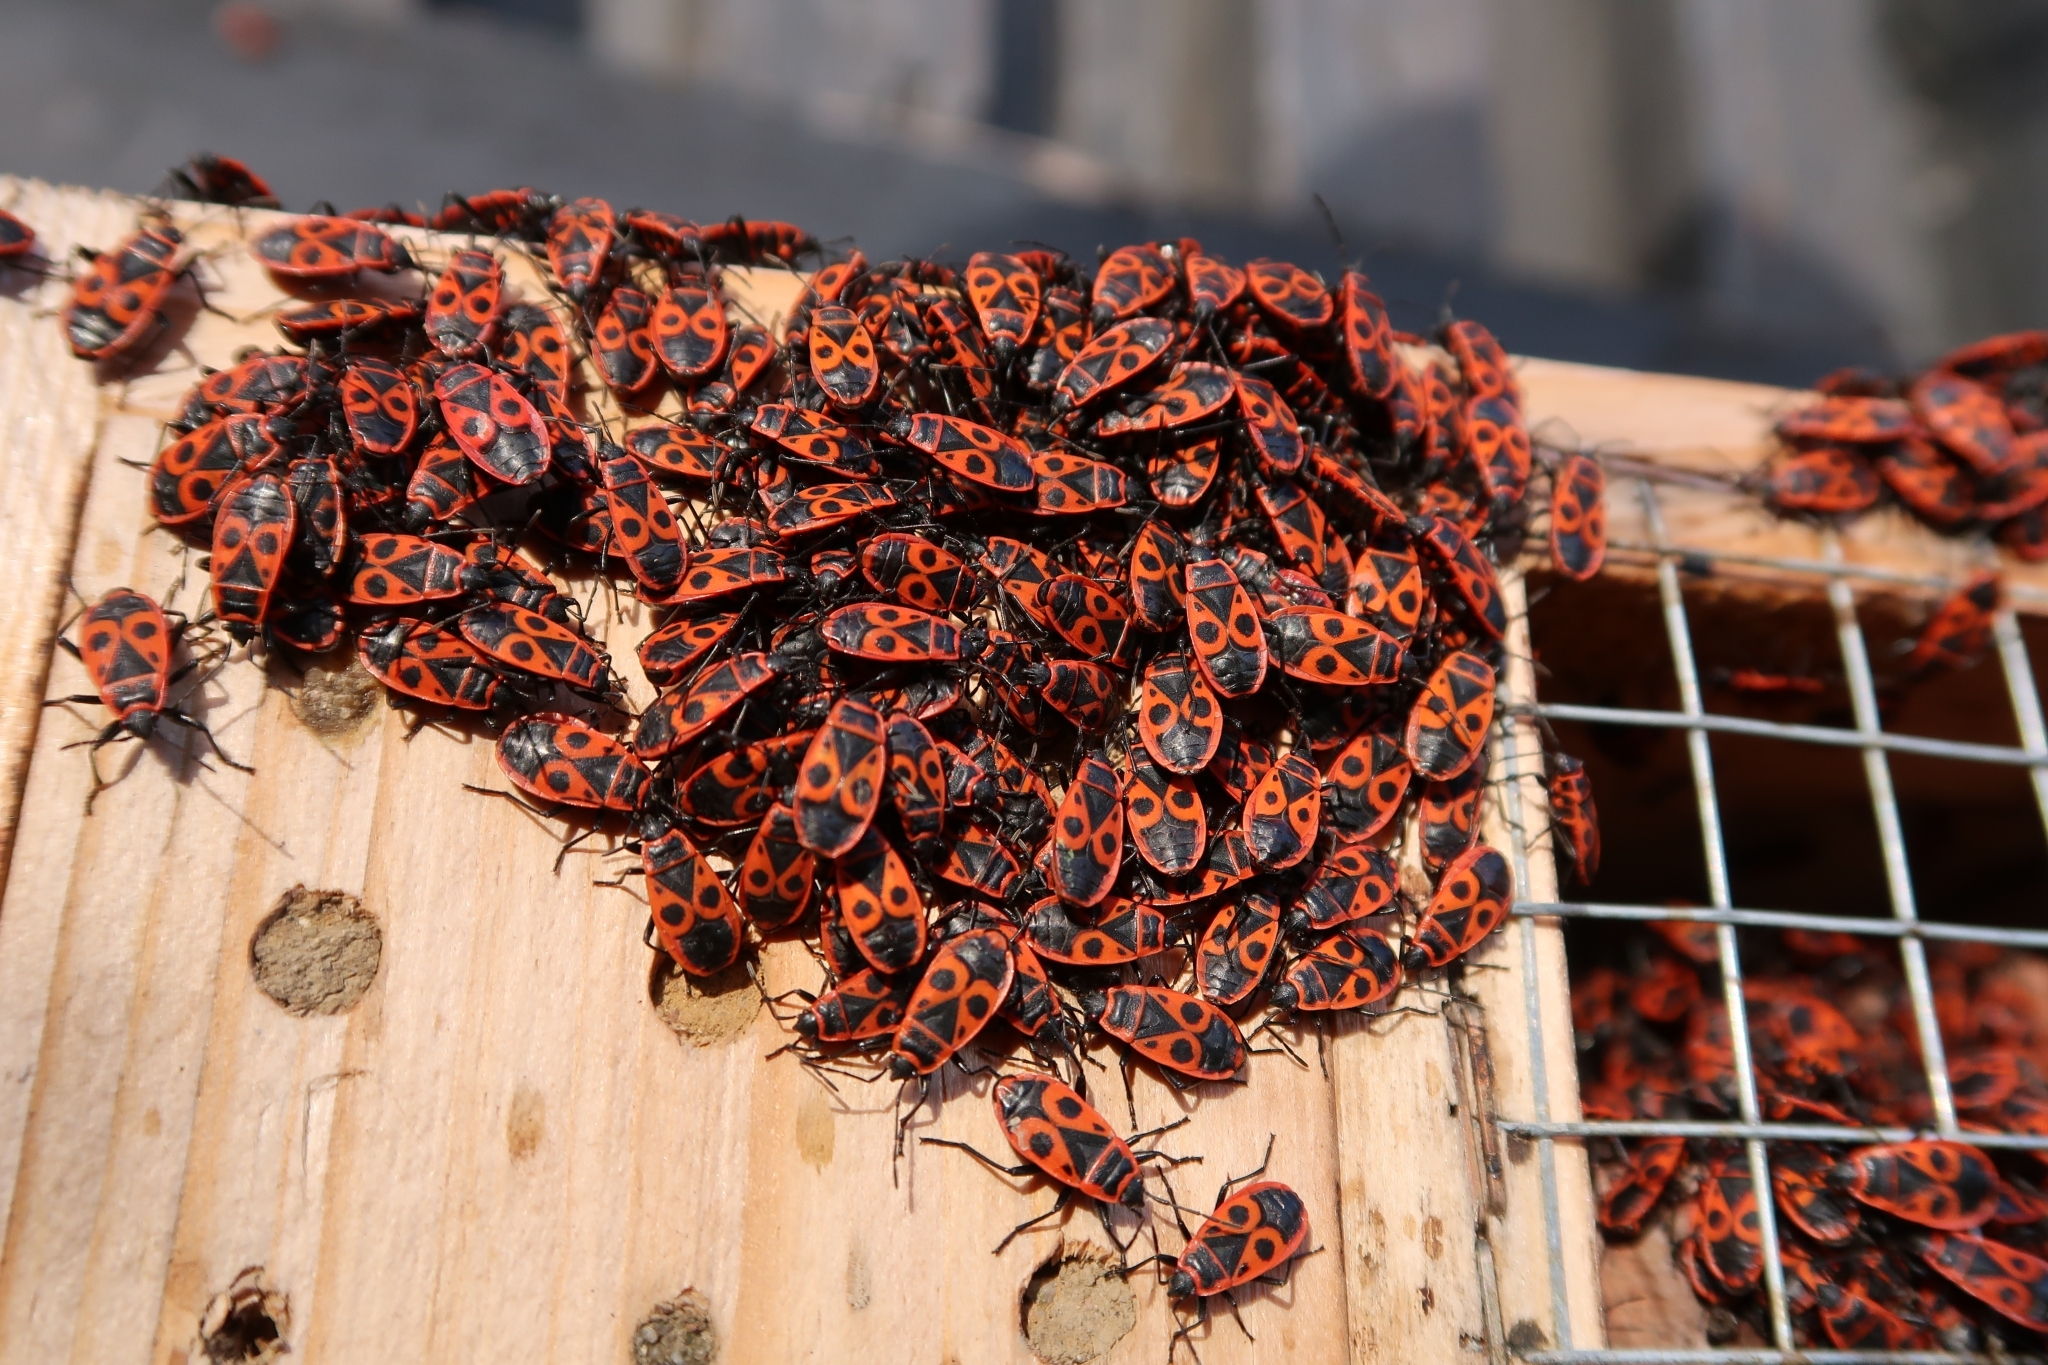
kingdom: Animalia
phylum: Arthropoda
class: Insecta
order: Hemiptera
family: Pyrrhocoridae
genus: Pyrrhocoris
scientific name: Pyrrhocoris apterus
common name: Firebug
